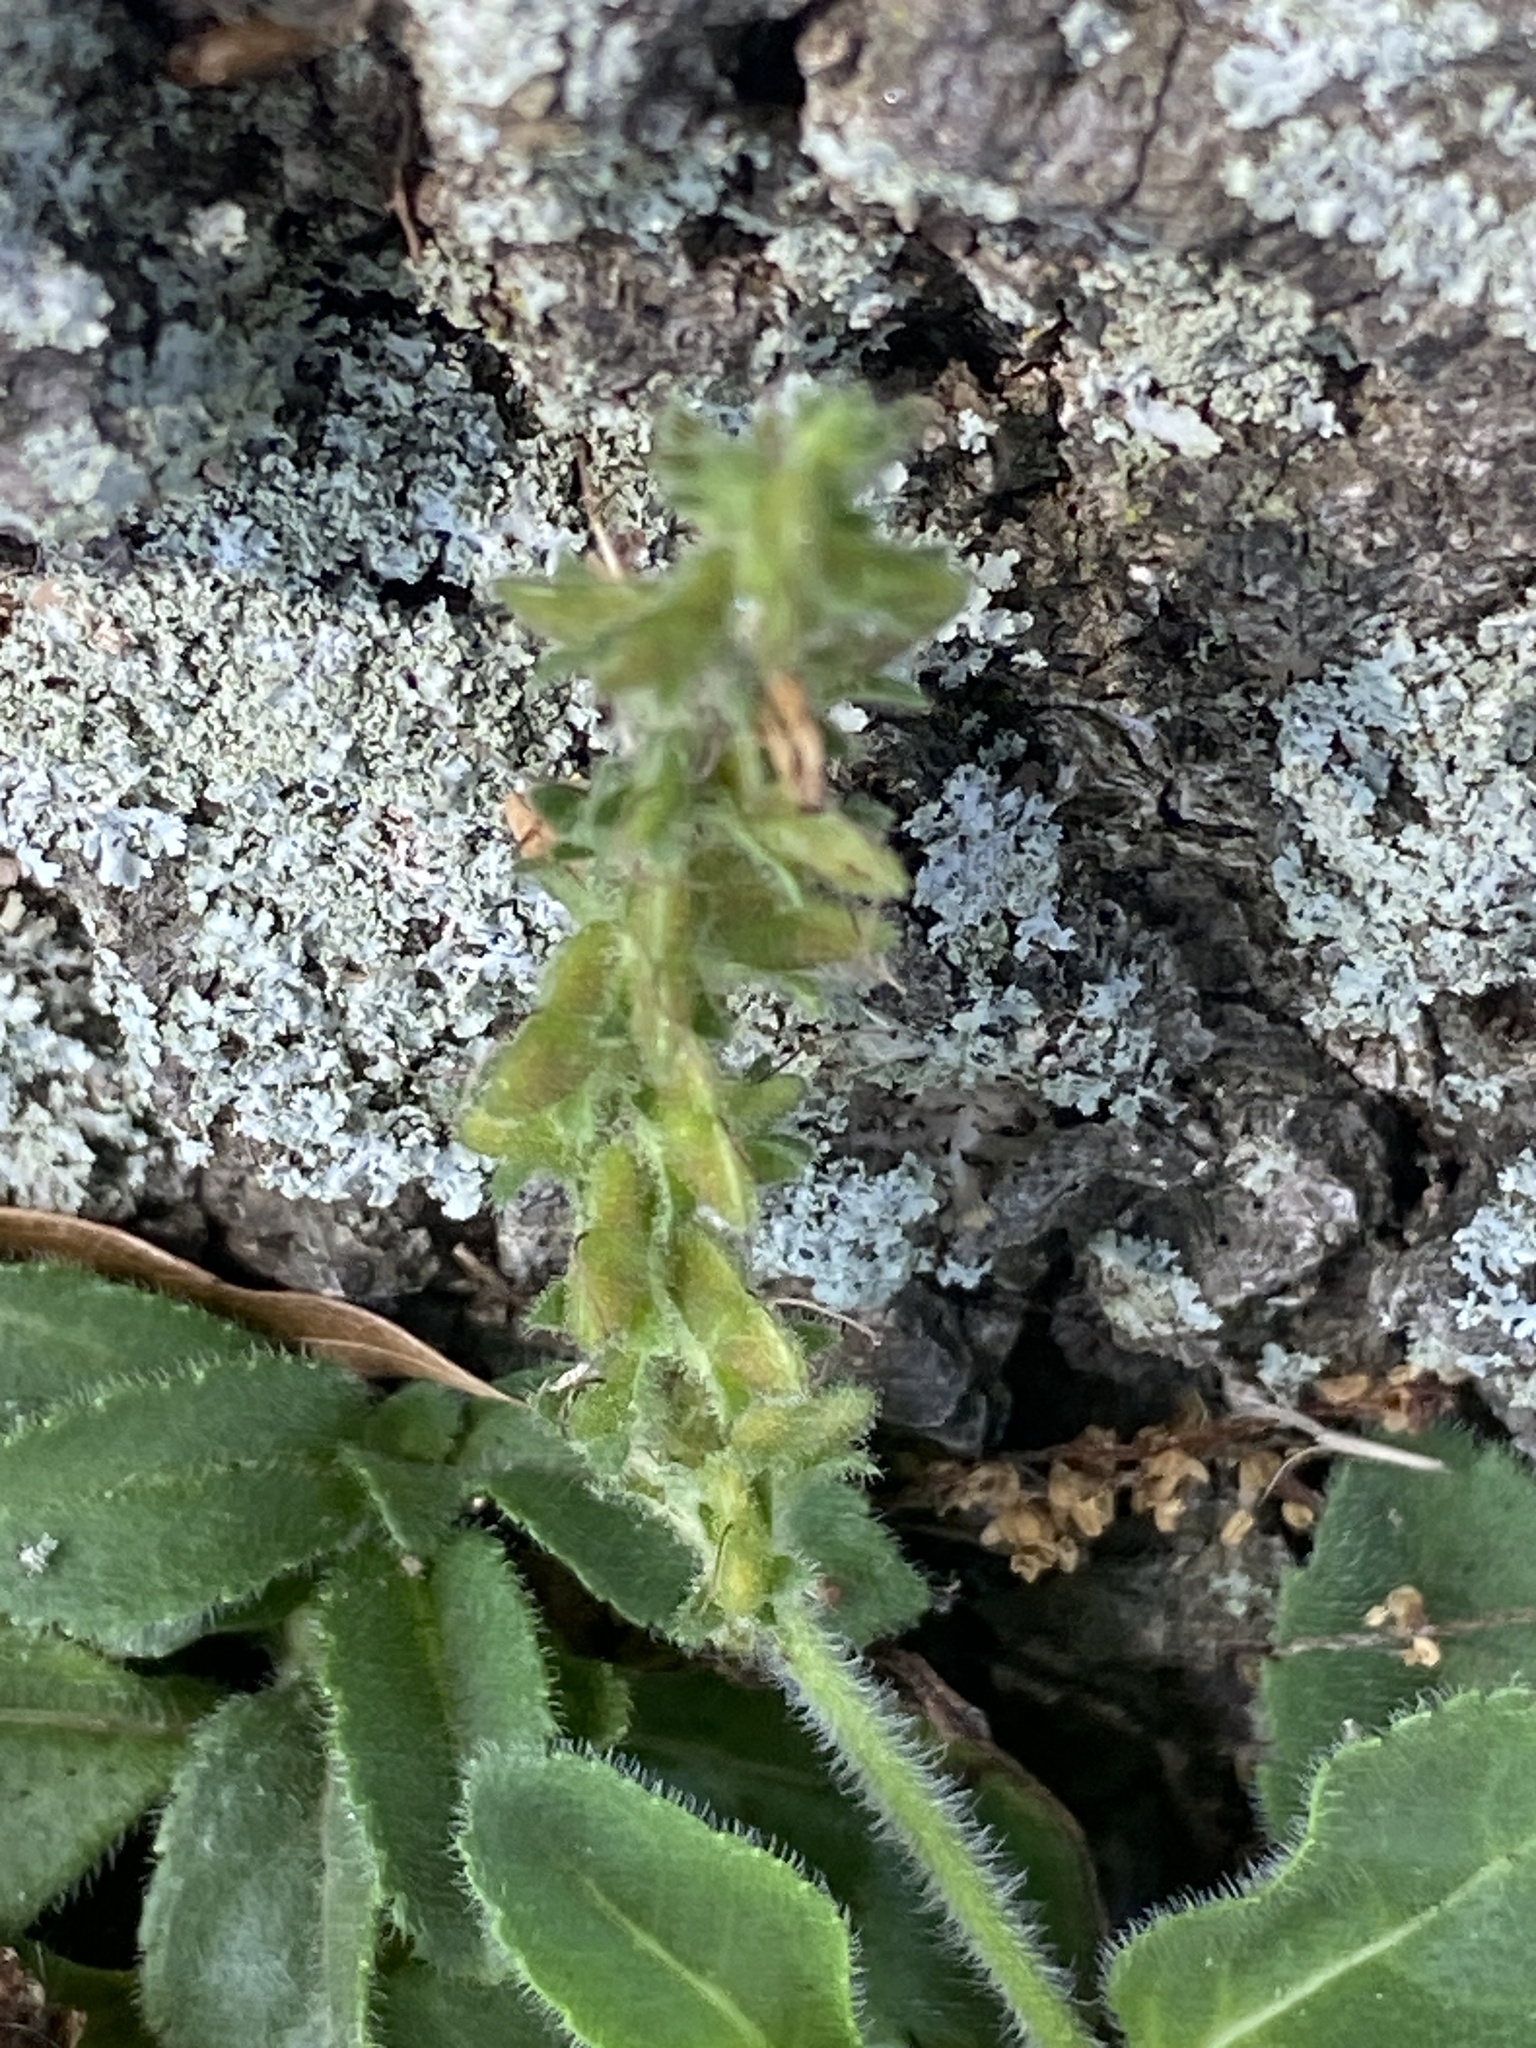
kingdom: Plantae
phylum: Tracheophyta
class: Magnoliopsida
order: Lamiales
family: Plantaginaceae
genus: Veronica
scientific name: Veronica officinalis
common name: Common speedwell
